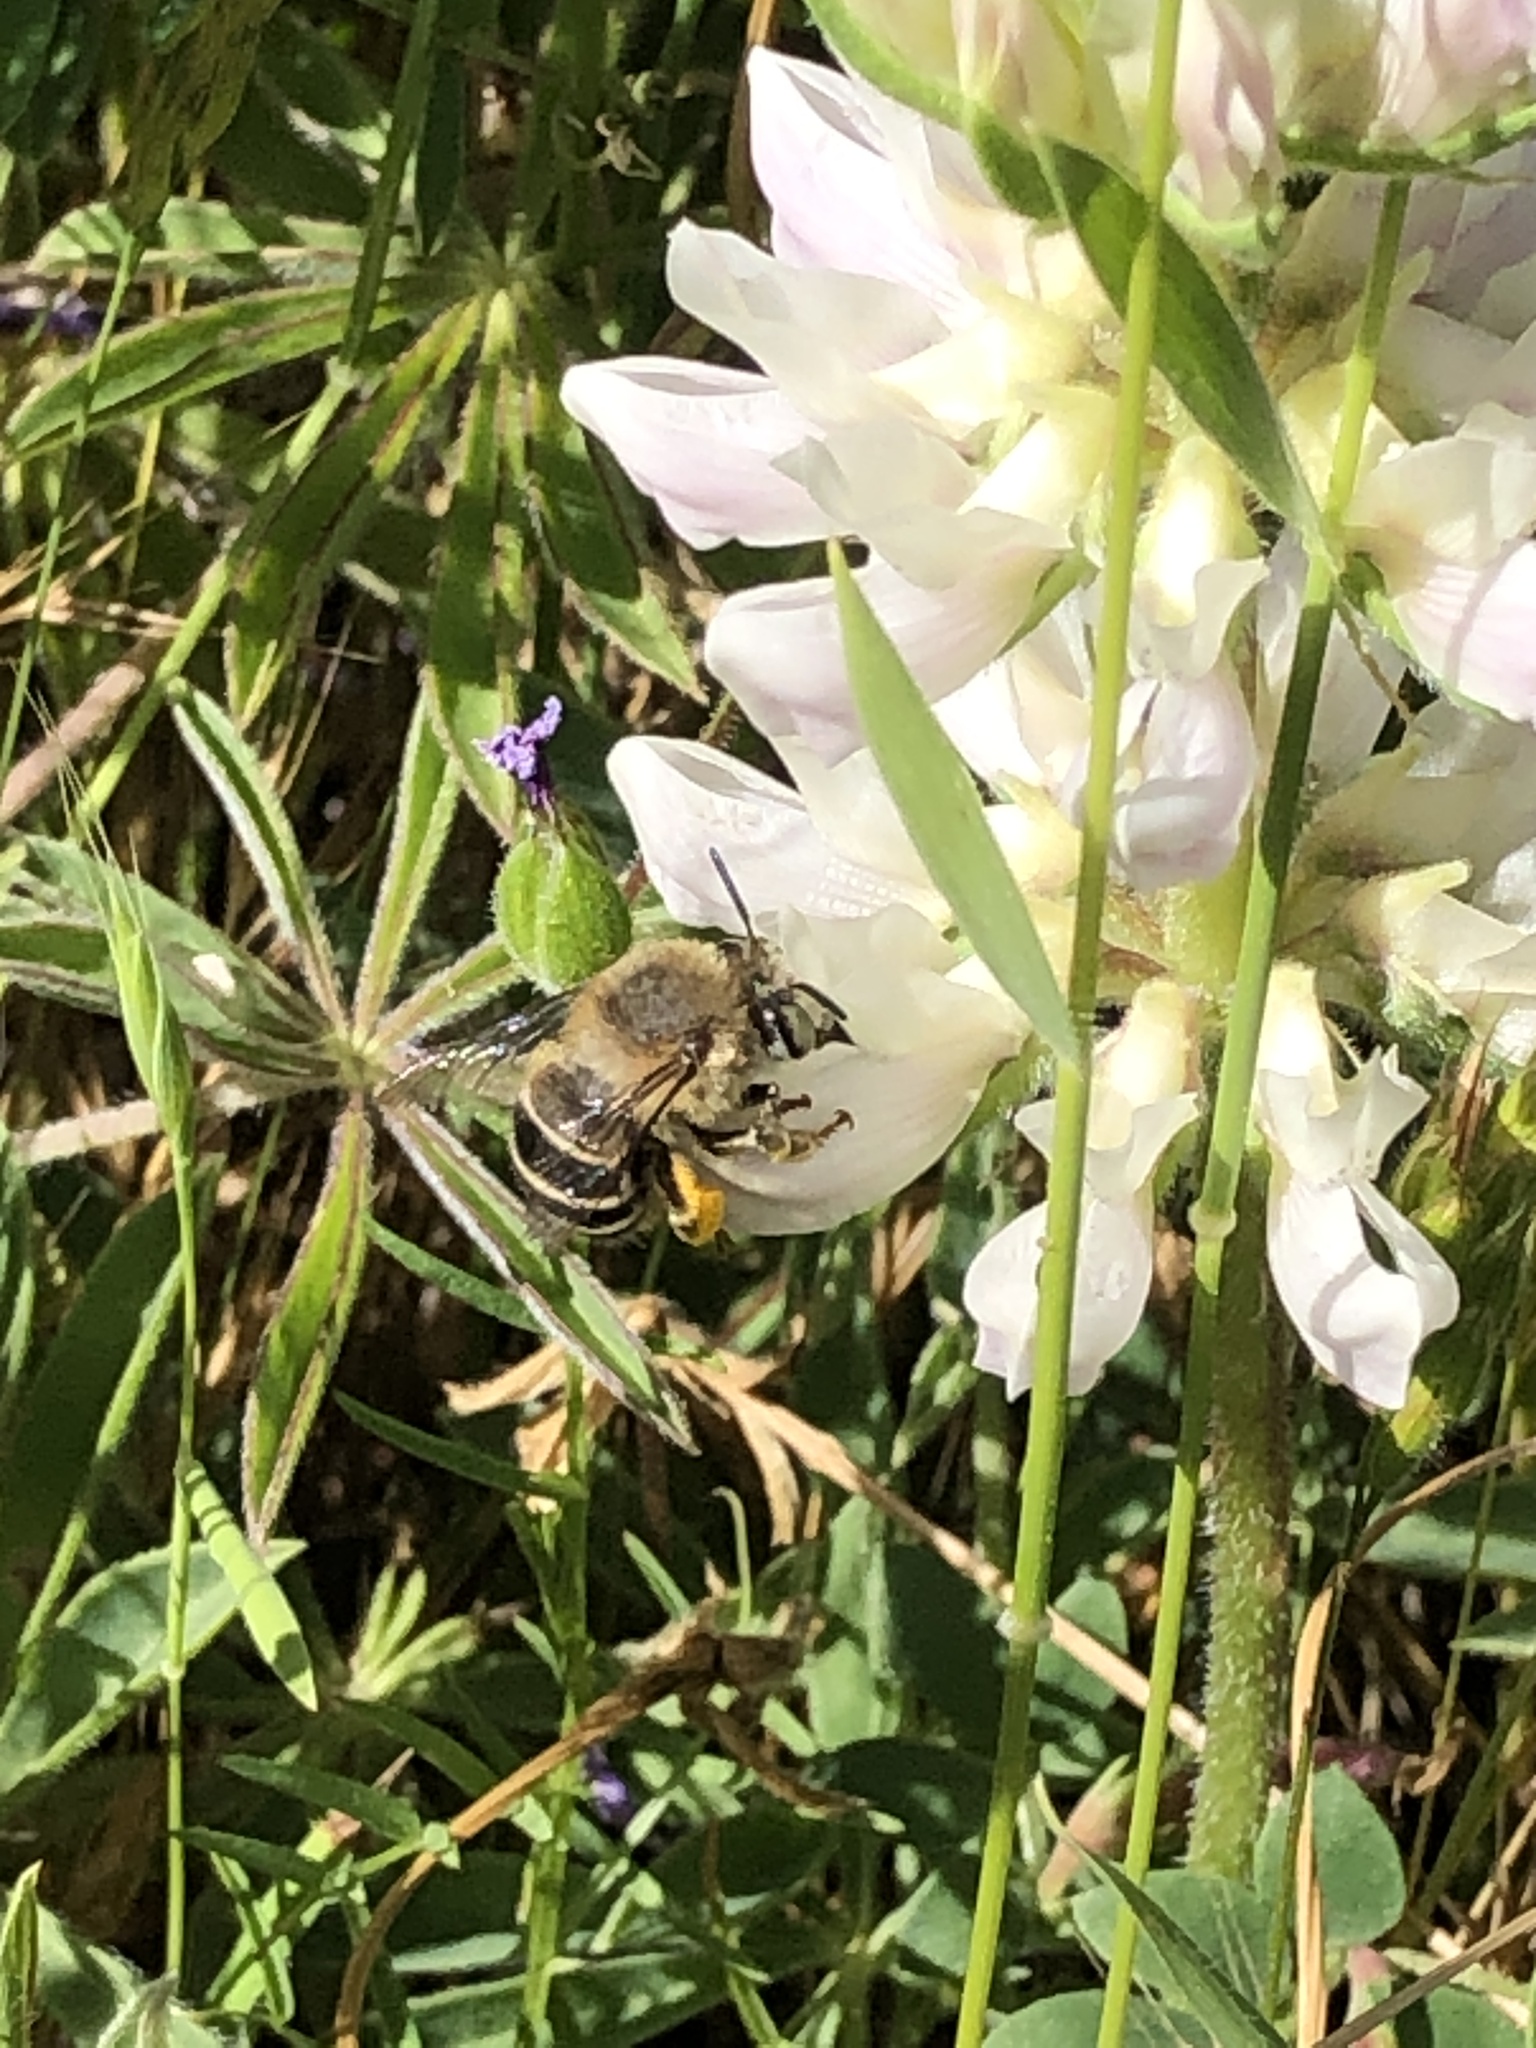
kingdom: Animalia
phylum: Arthropoda
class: Insecta
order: Hymenoptera
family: Apidae
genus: Anthophora
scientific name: Anthophora californica
